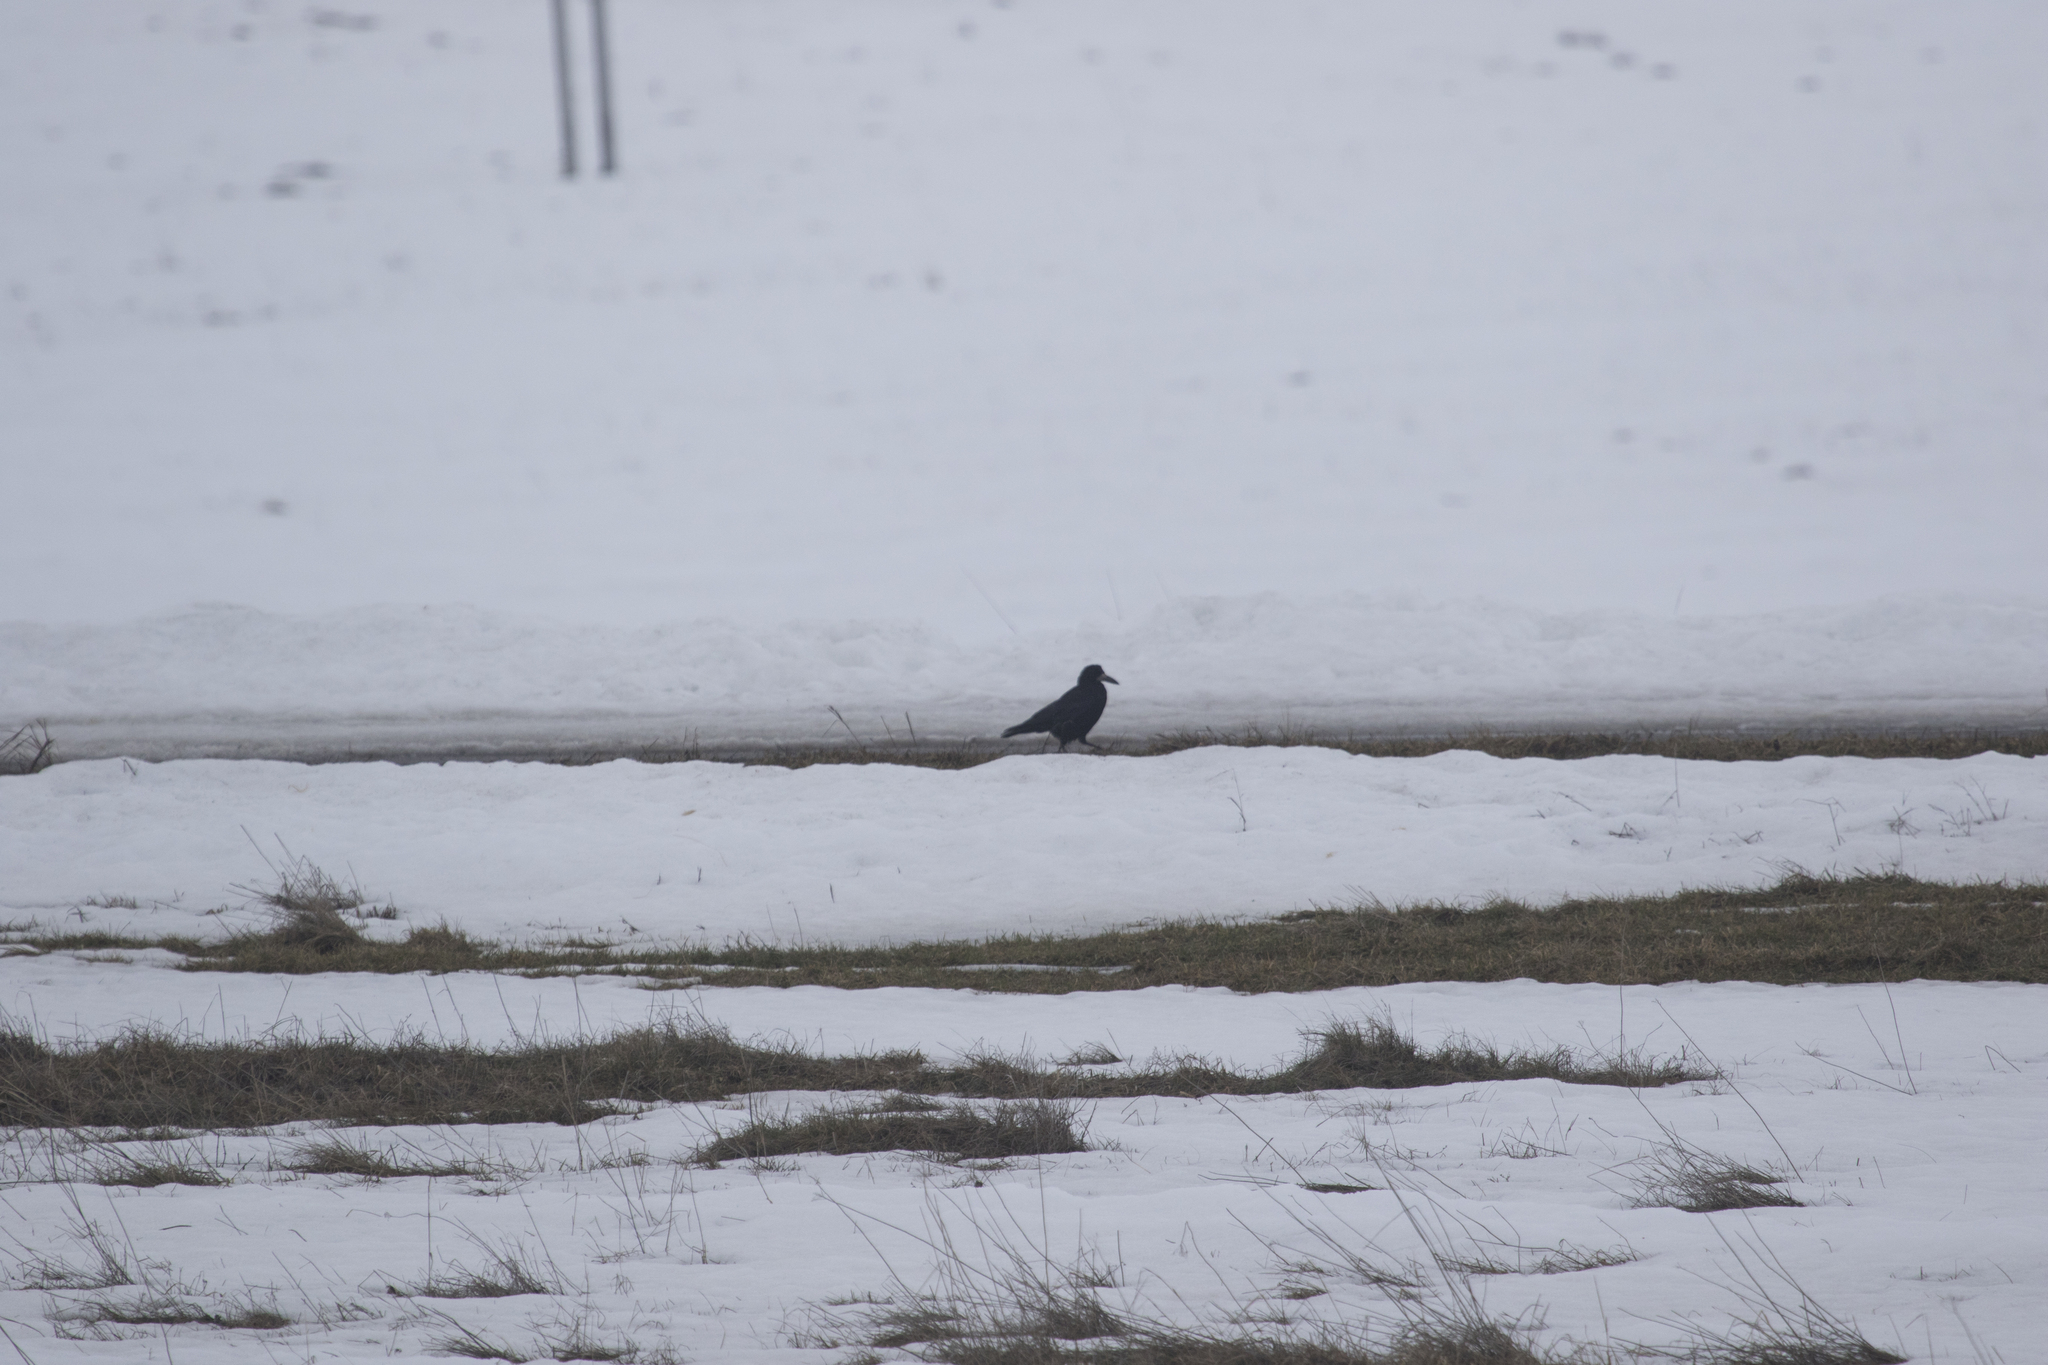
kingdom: Animalia
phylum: Chordata
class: Aves
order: Passeriformes
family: Corvidae
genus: Corvus
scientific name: Corvus frugilegus
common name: Rook
